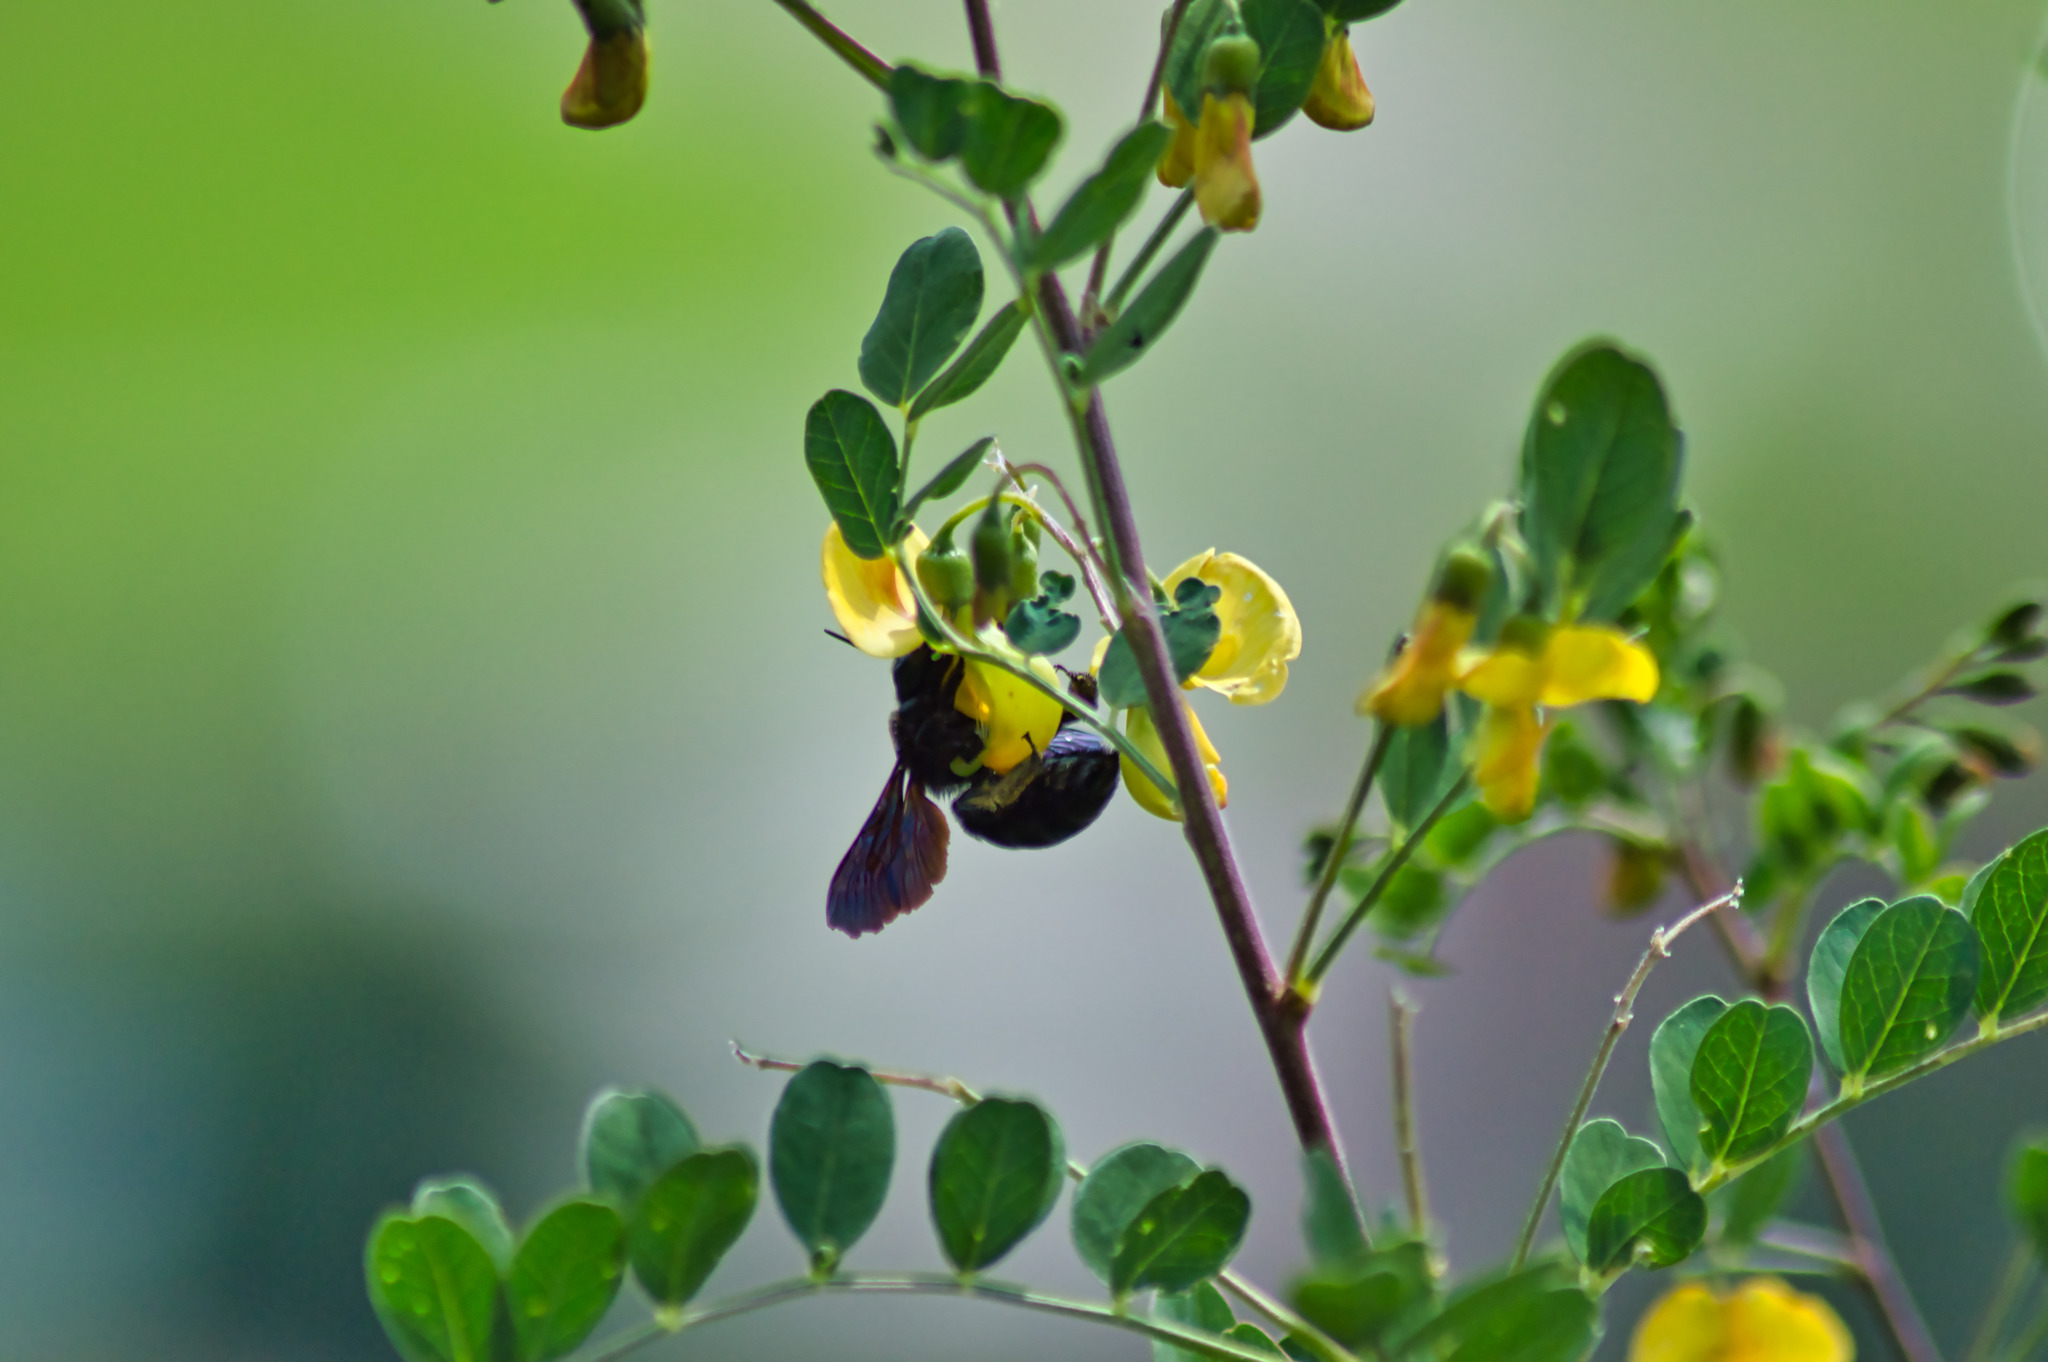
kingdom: Animalia
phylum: Arthropoda
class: Insecta
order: Hymenoptera
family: Apidae
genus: Xylocopa
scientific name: Xylocopa violacea
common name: Violet carpenter bee
